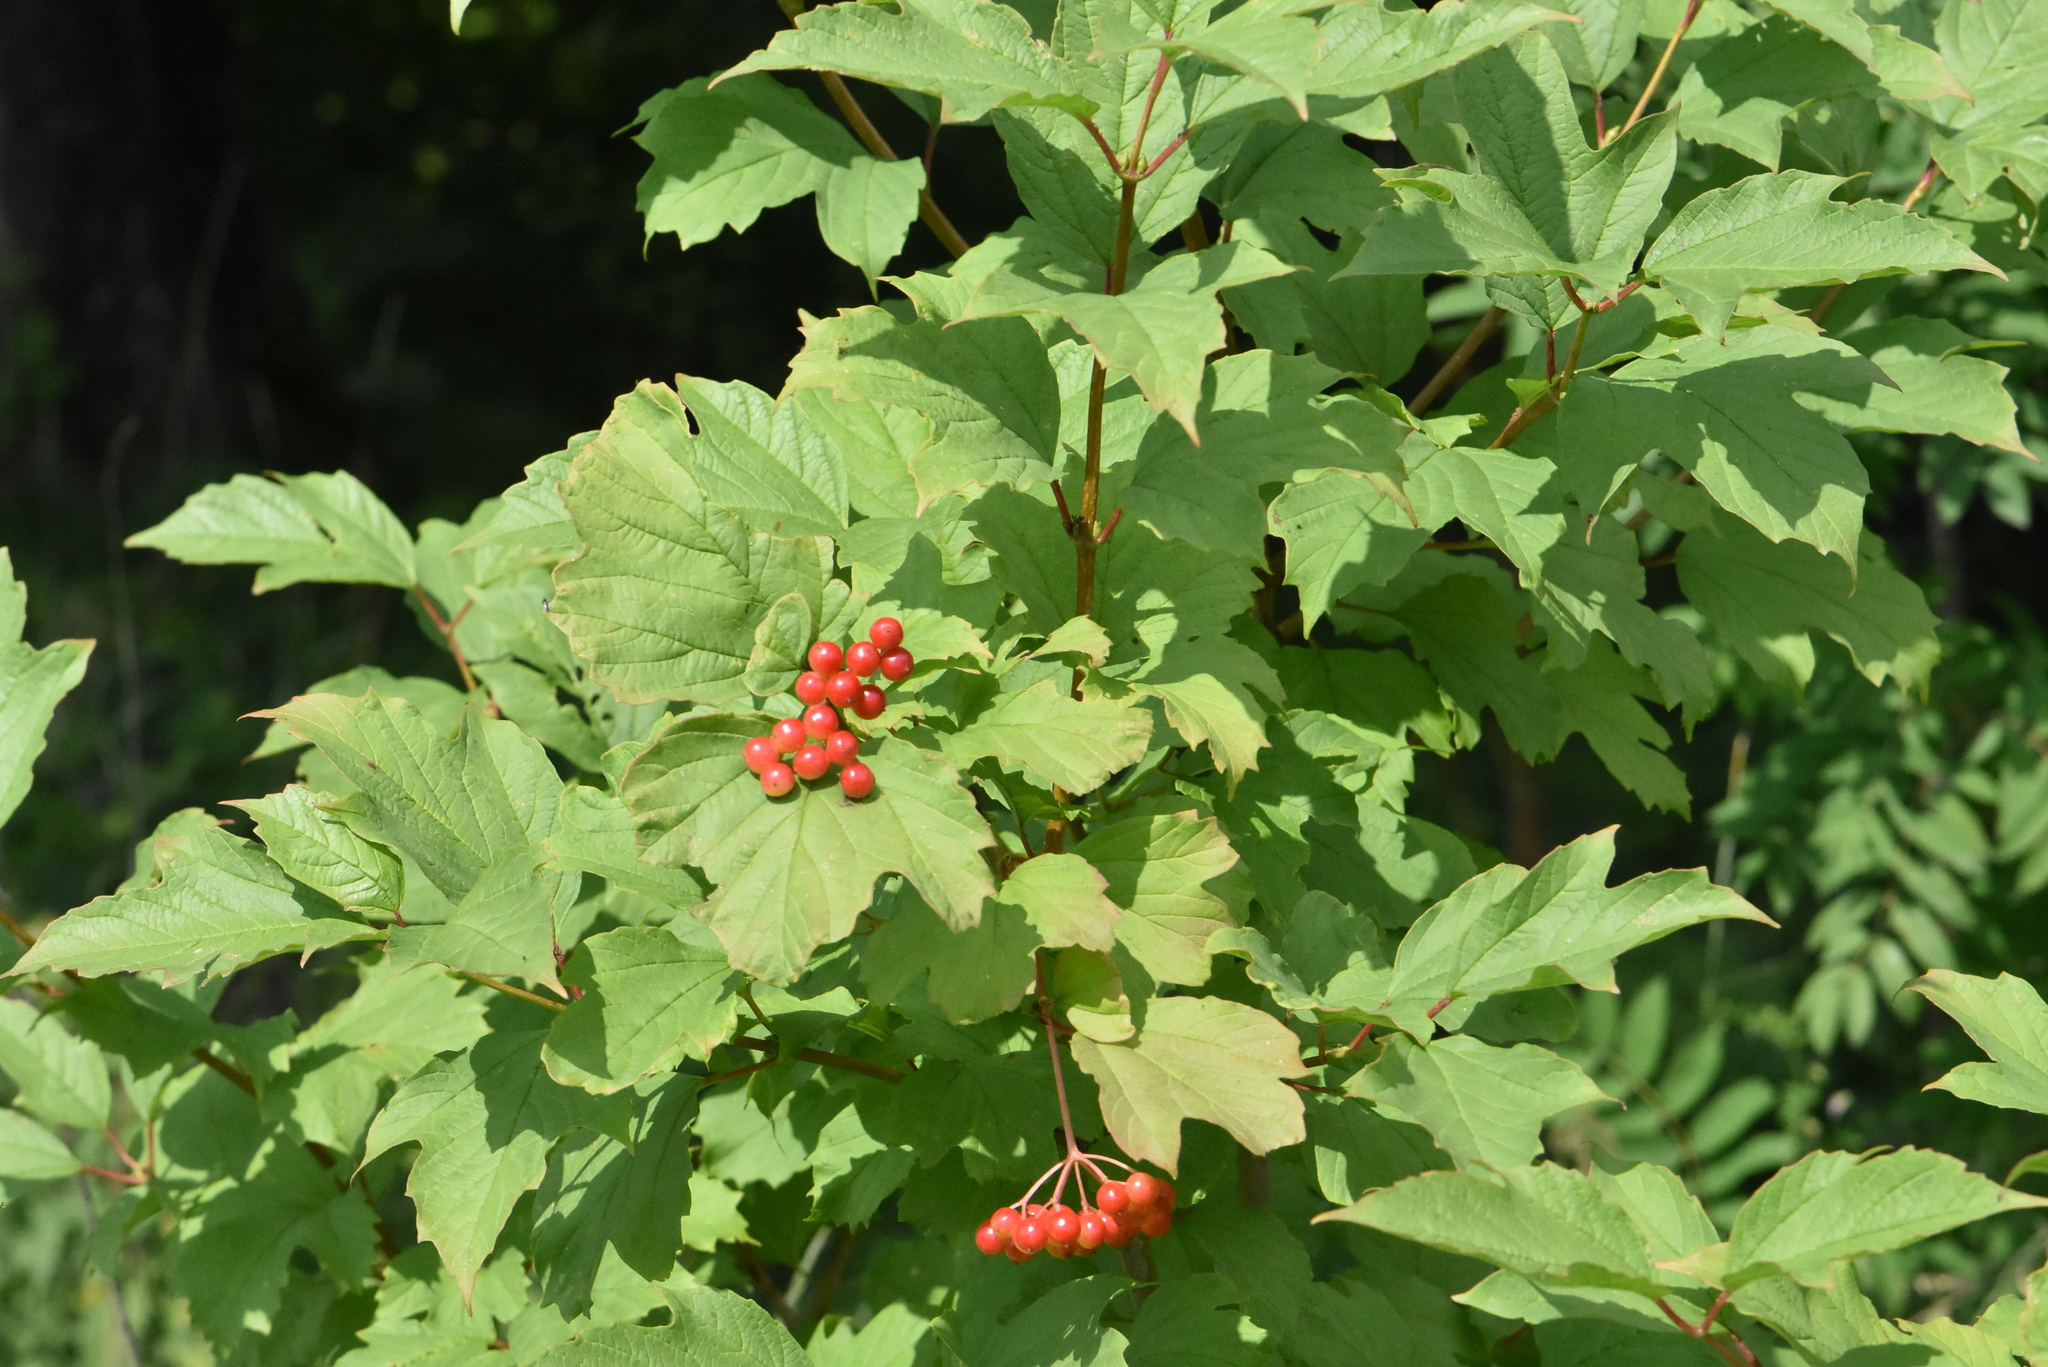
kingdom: Plantae
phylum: Tracheophyta
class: Magnoliopsida
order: Dipsacales
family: Viburnaceae
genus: Viburnum
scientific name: Viburnum opulus
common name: Guelder-rose
